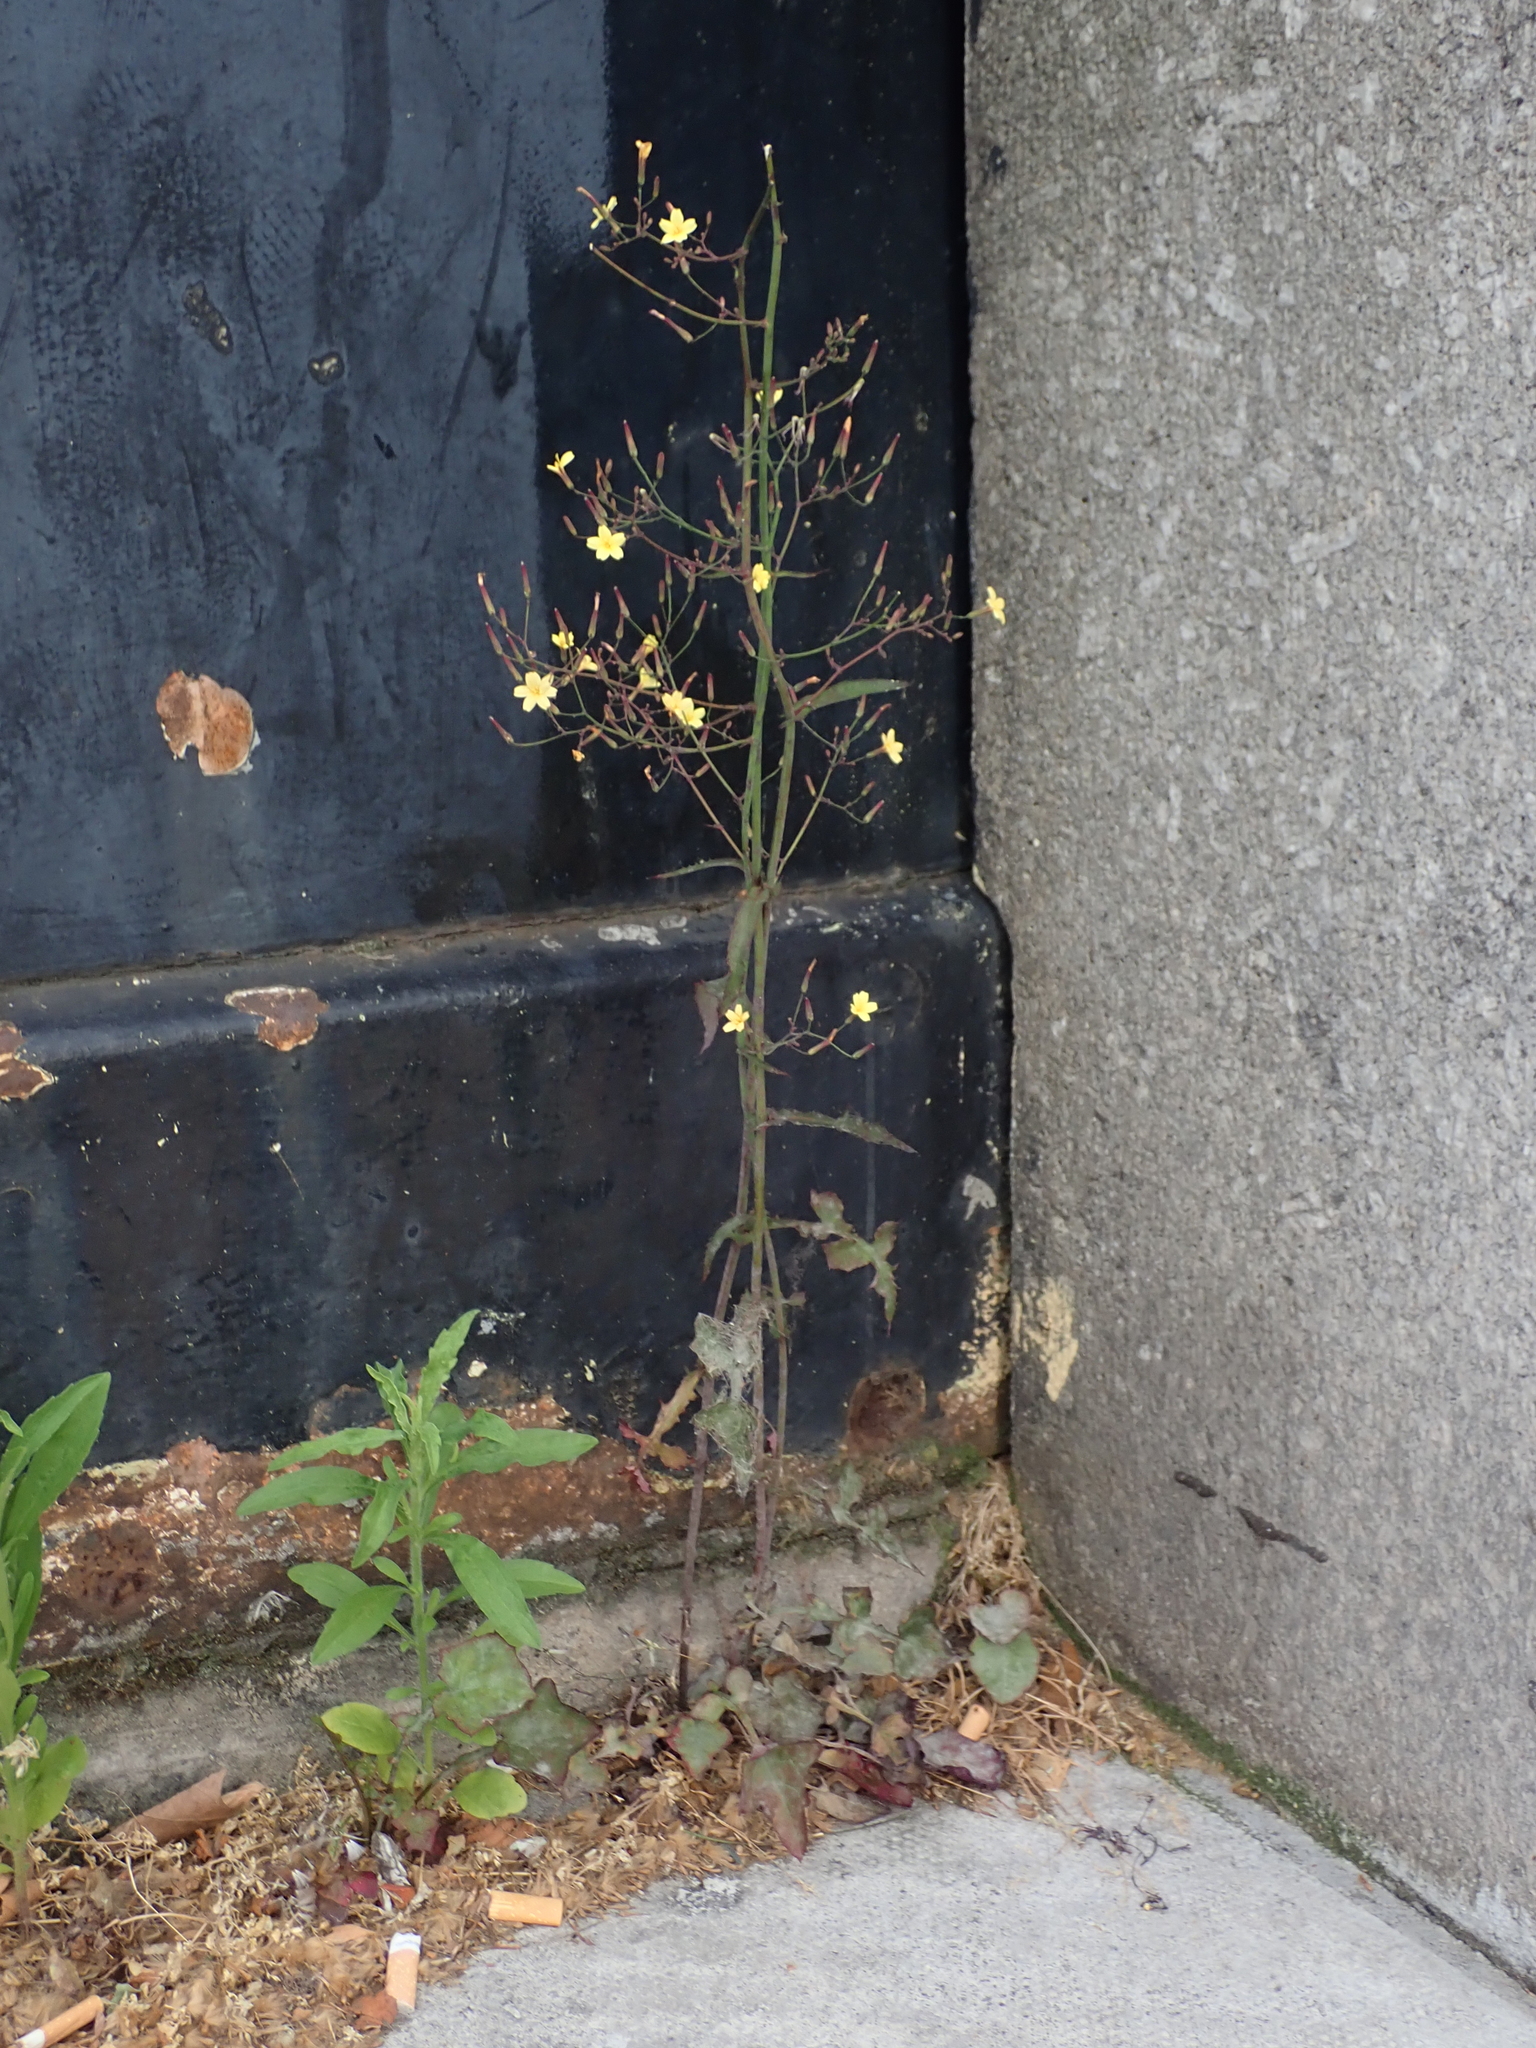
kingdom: Plantae
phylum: Tracheophyta
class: Magnoliopsida
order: Asterales
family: Asteraceae
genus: Mycelis
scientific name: Mycelis muralis
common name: Wall lettuce
